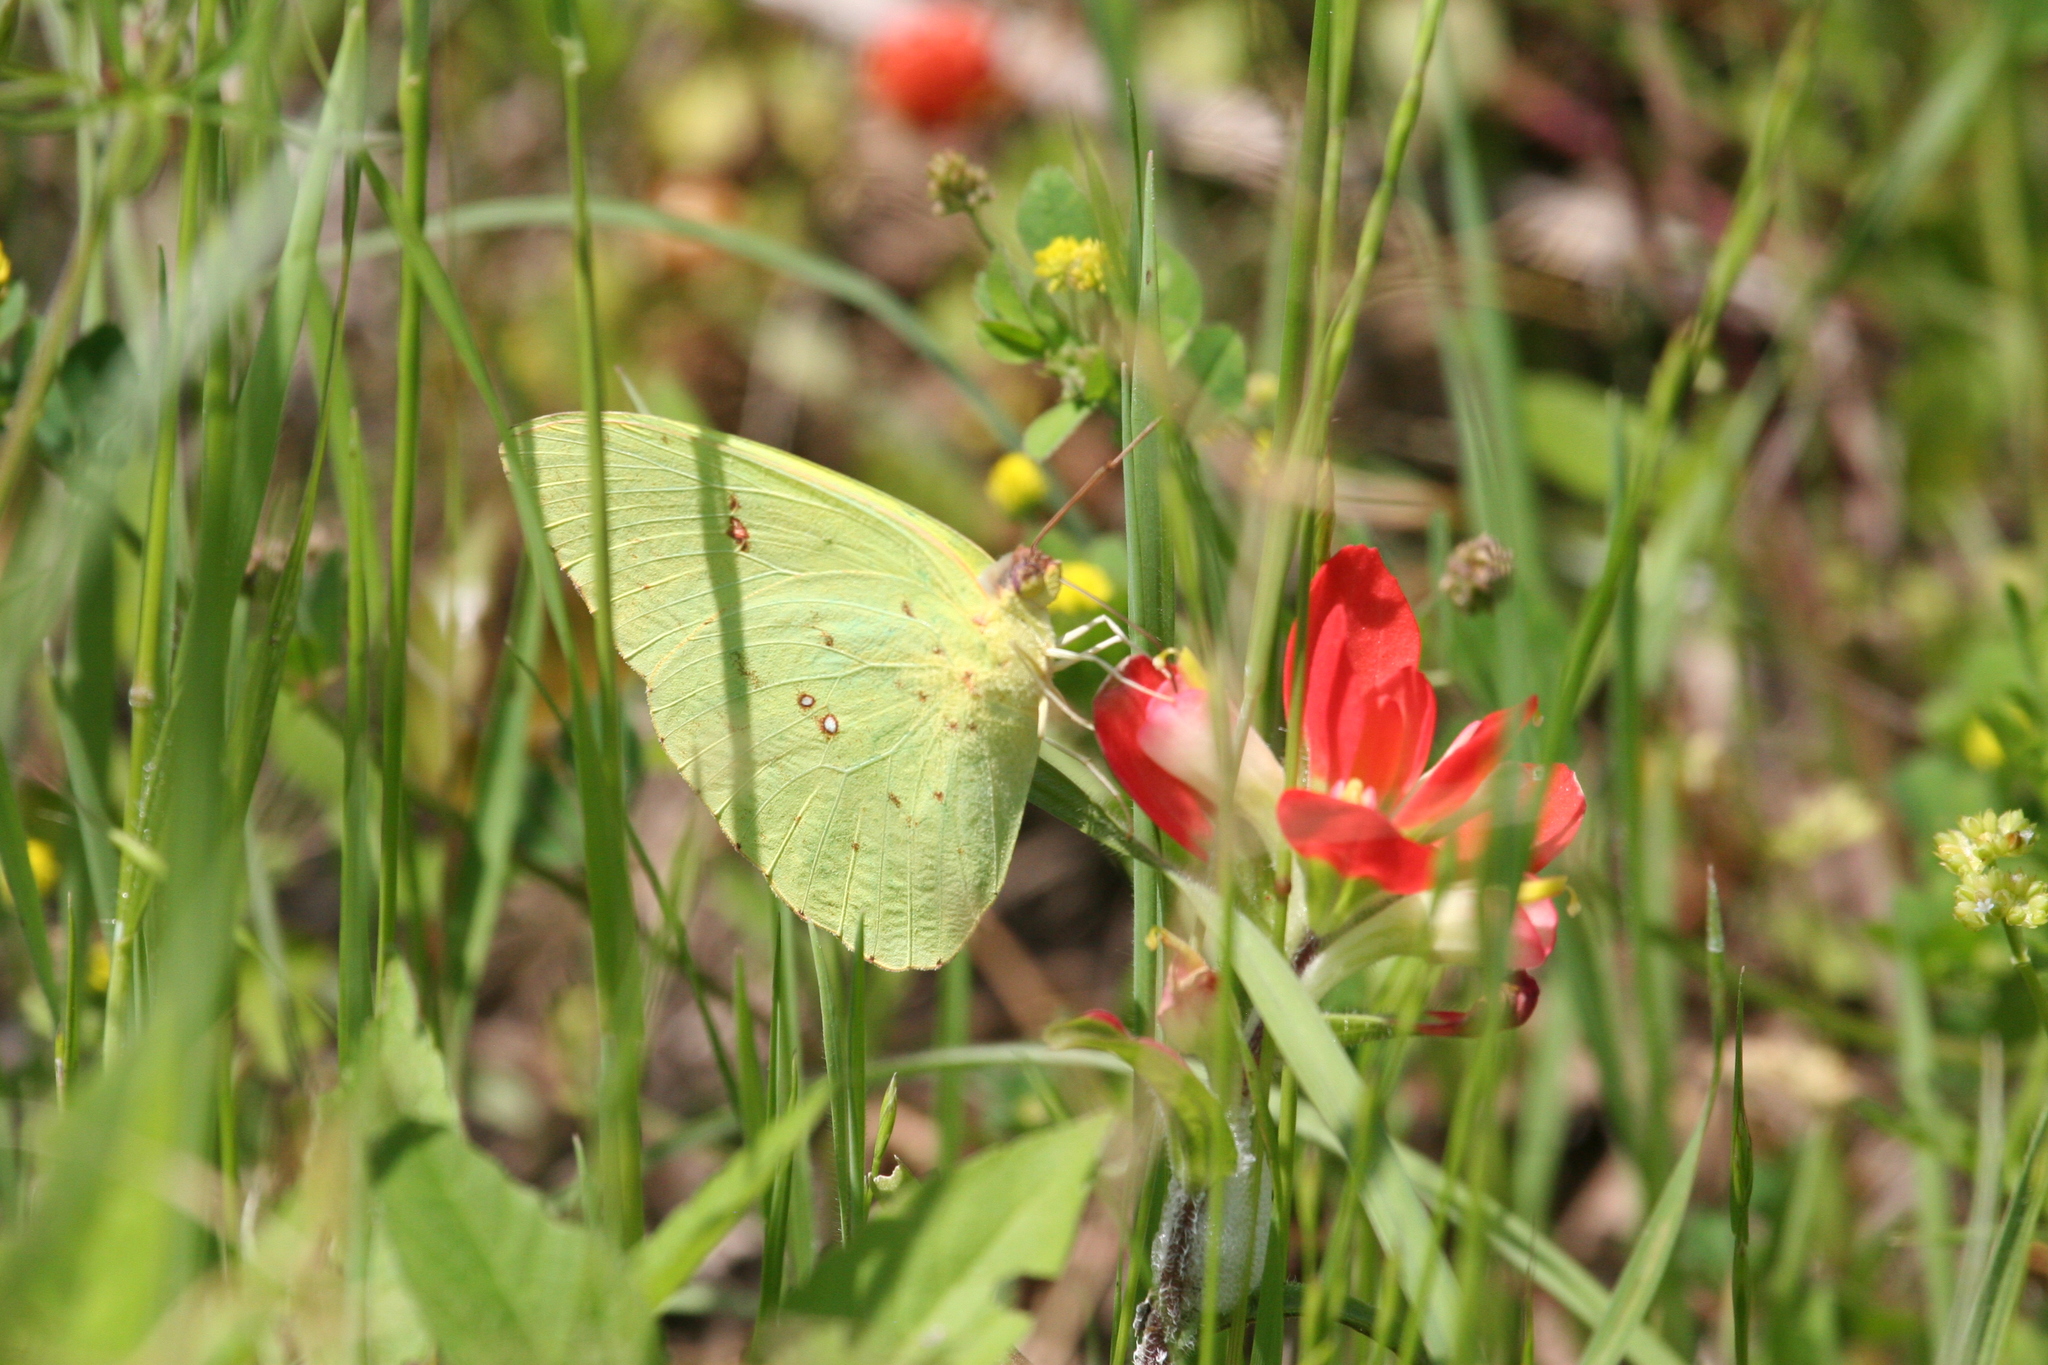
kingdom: Animalia
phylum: Arthropoda
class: Insecta
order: Lepidoptera
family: Pieridae
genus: Phoebis
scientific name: Phoebis sennae
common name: Cloudless sulphur
